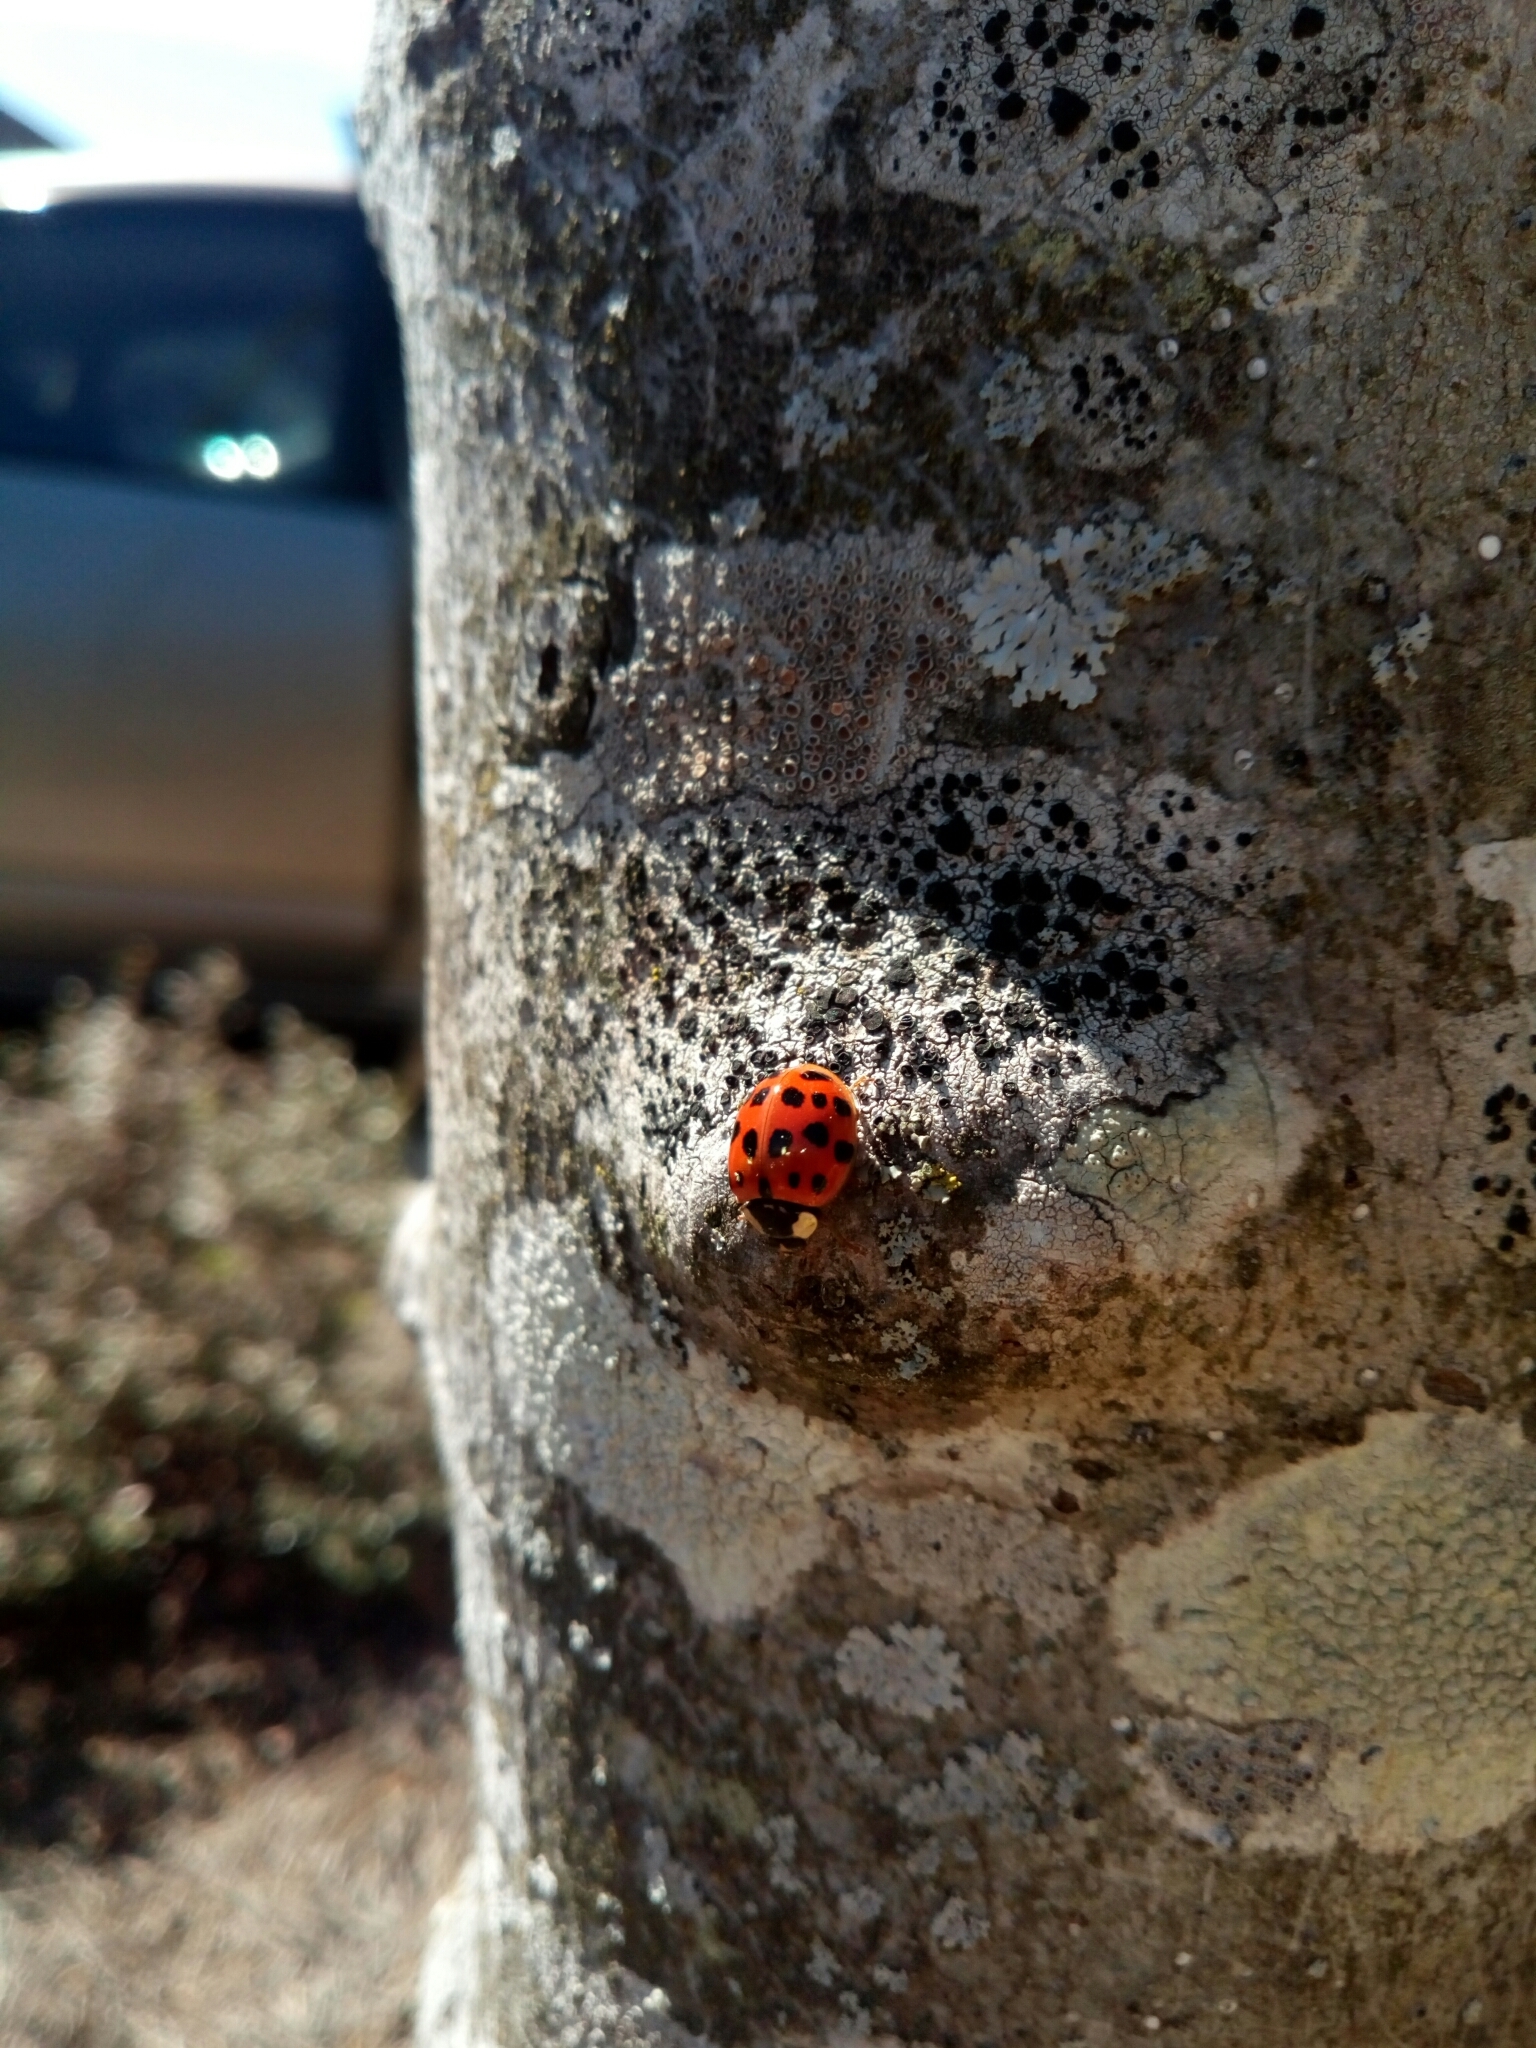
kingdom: Animalia
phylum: Arthropoda
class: Insecta
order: Coleoptera
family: Coccinellidae
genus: Harmonia
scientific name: Harmonia axyridis
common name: Harlequin ladybird
